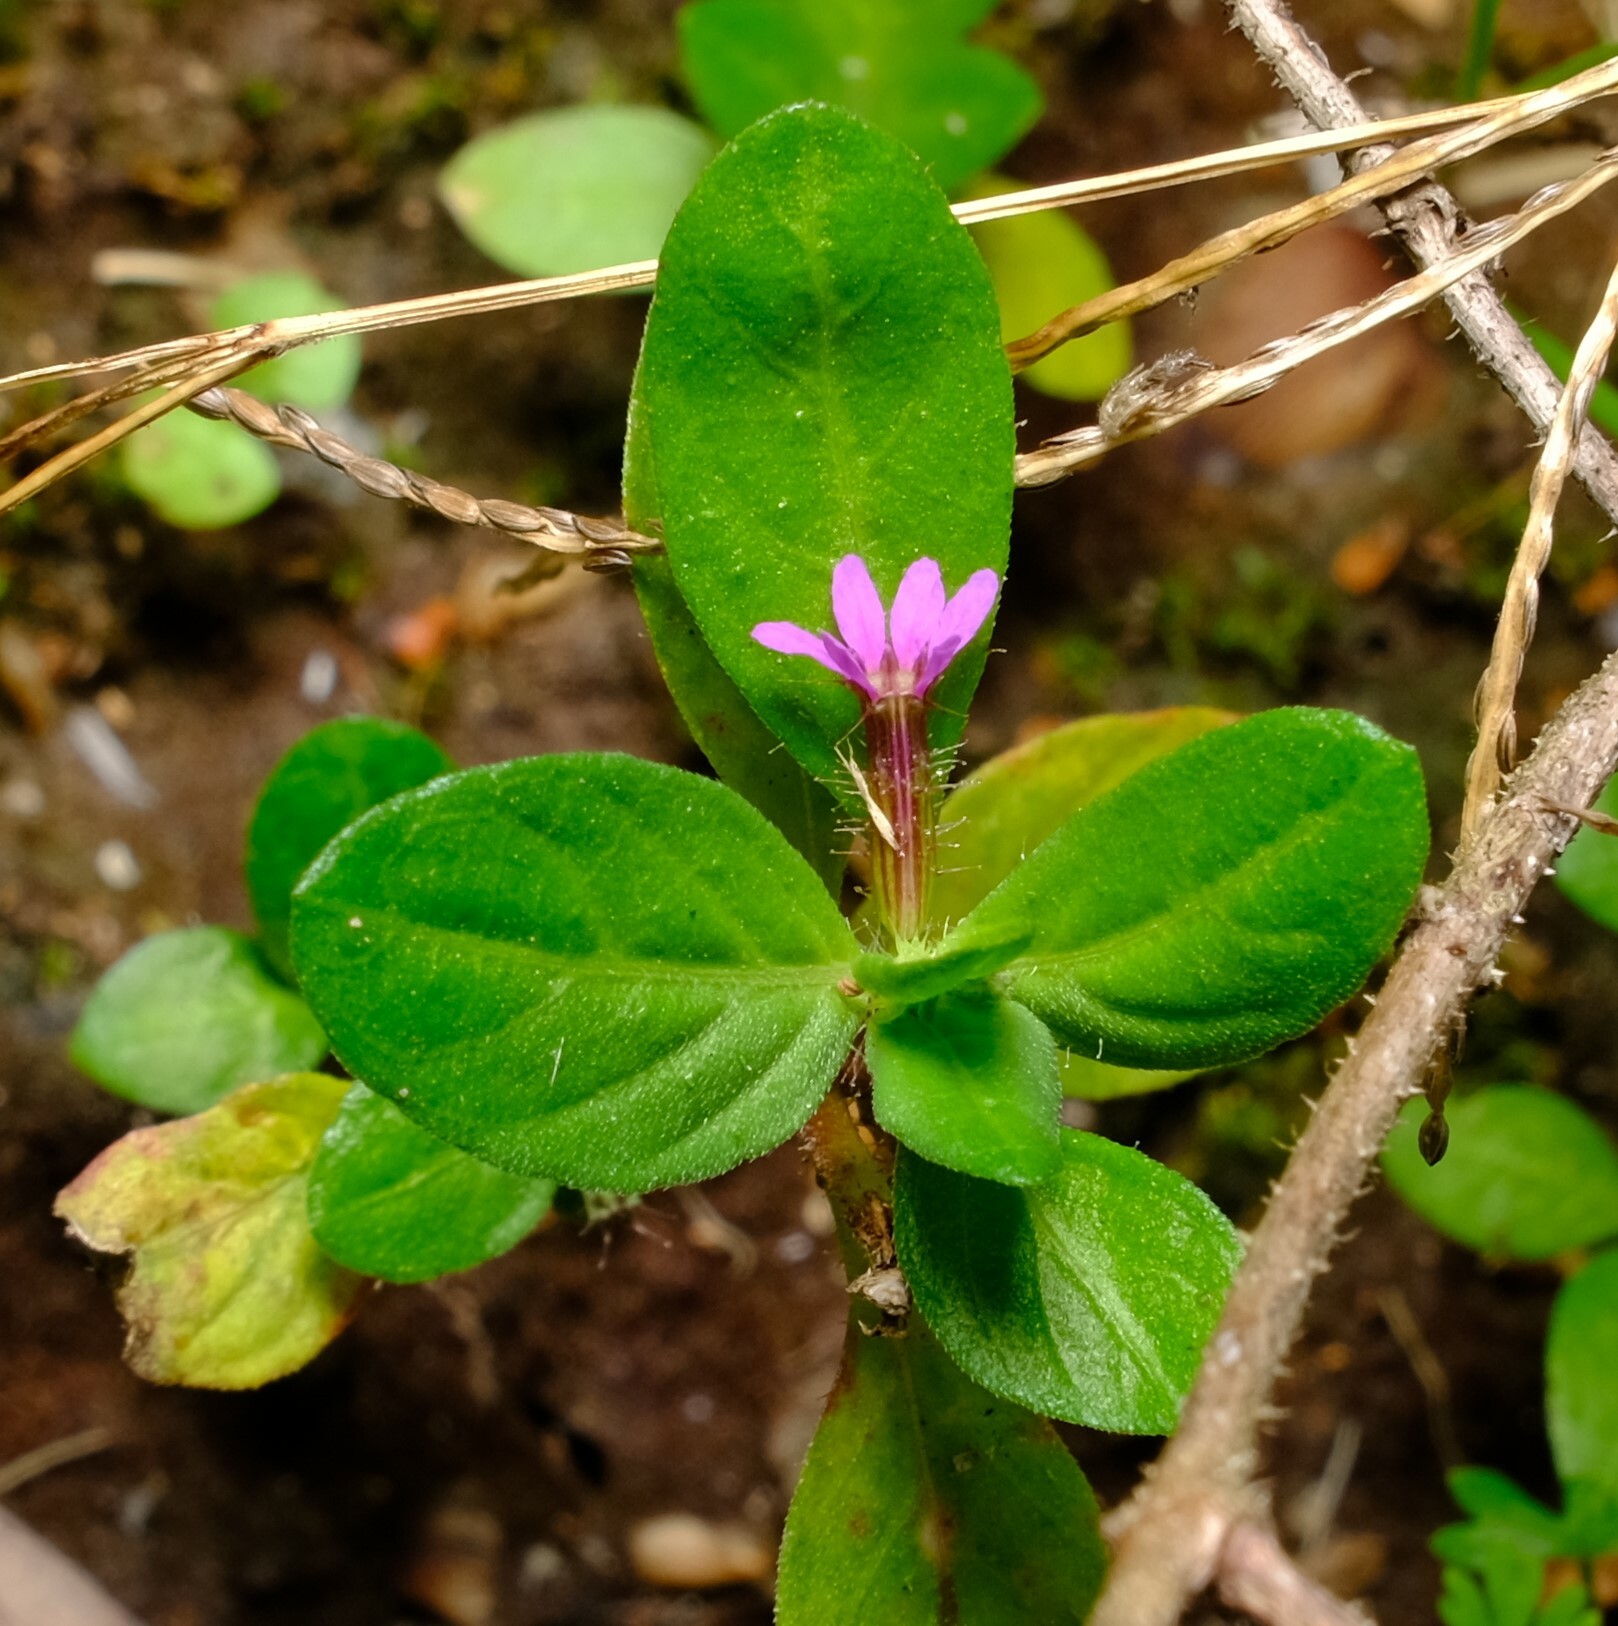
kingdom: Plantae
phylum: Tracheophyta
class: Magnoliopsida
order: Myrtales
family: Lythraceae
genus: Cuphea
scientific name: Cuphea carthagenensis
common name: Colombian waxweed
